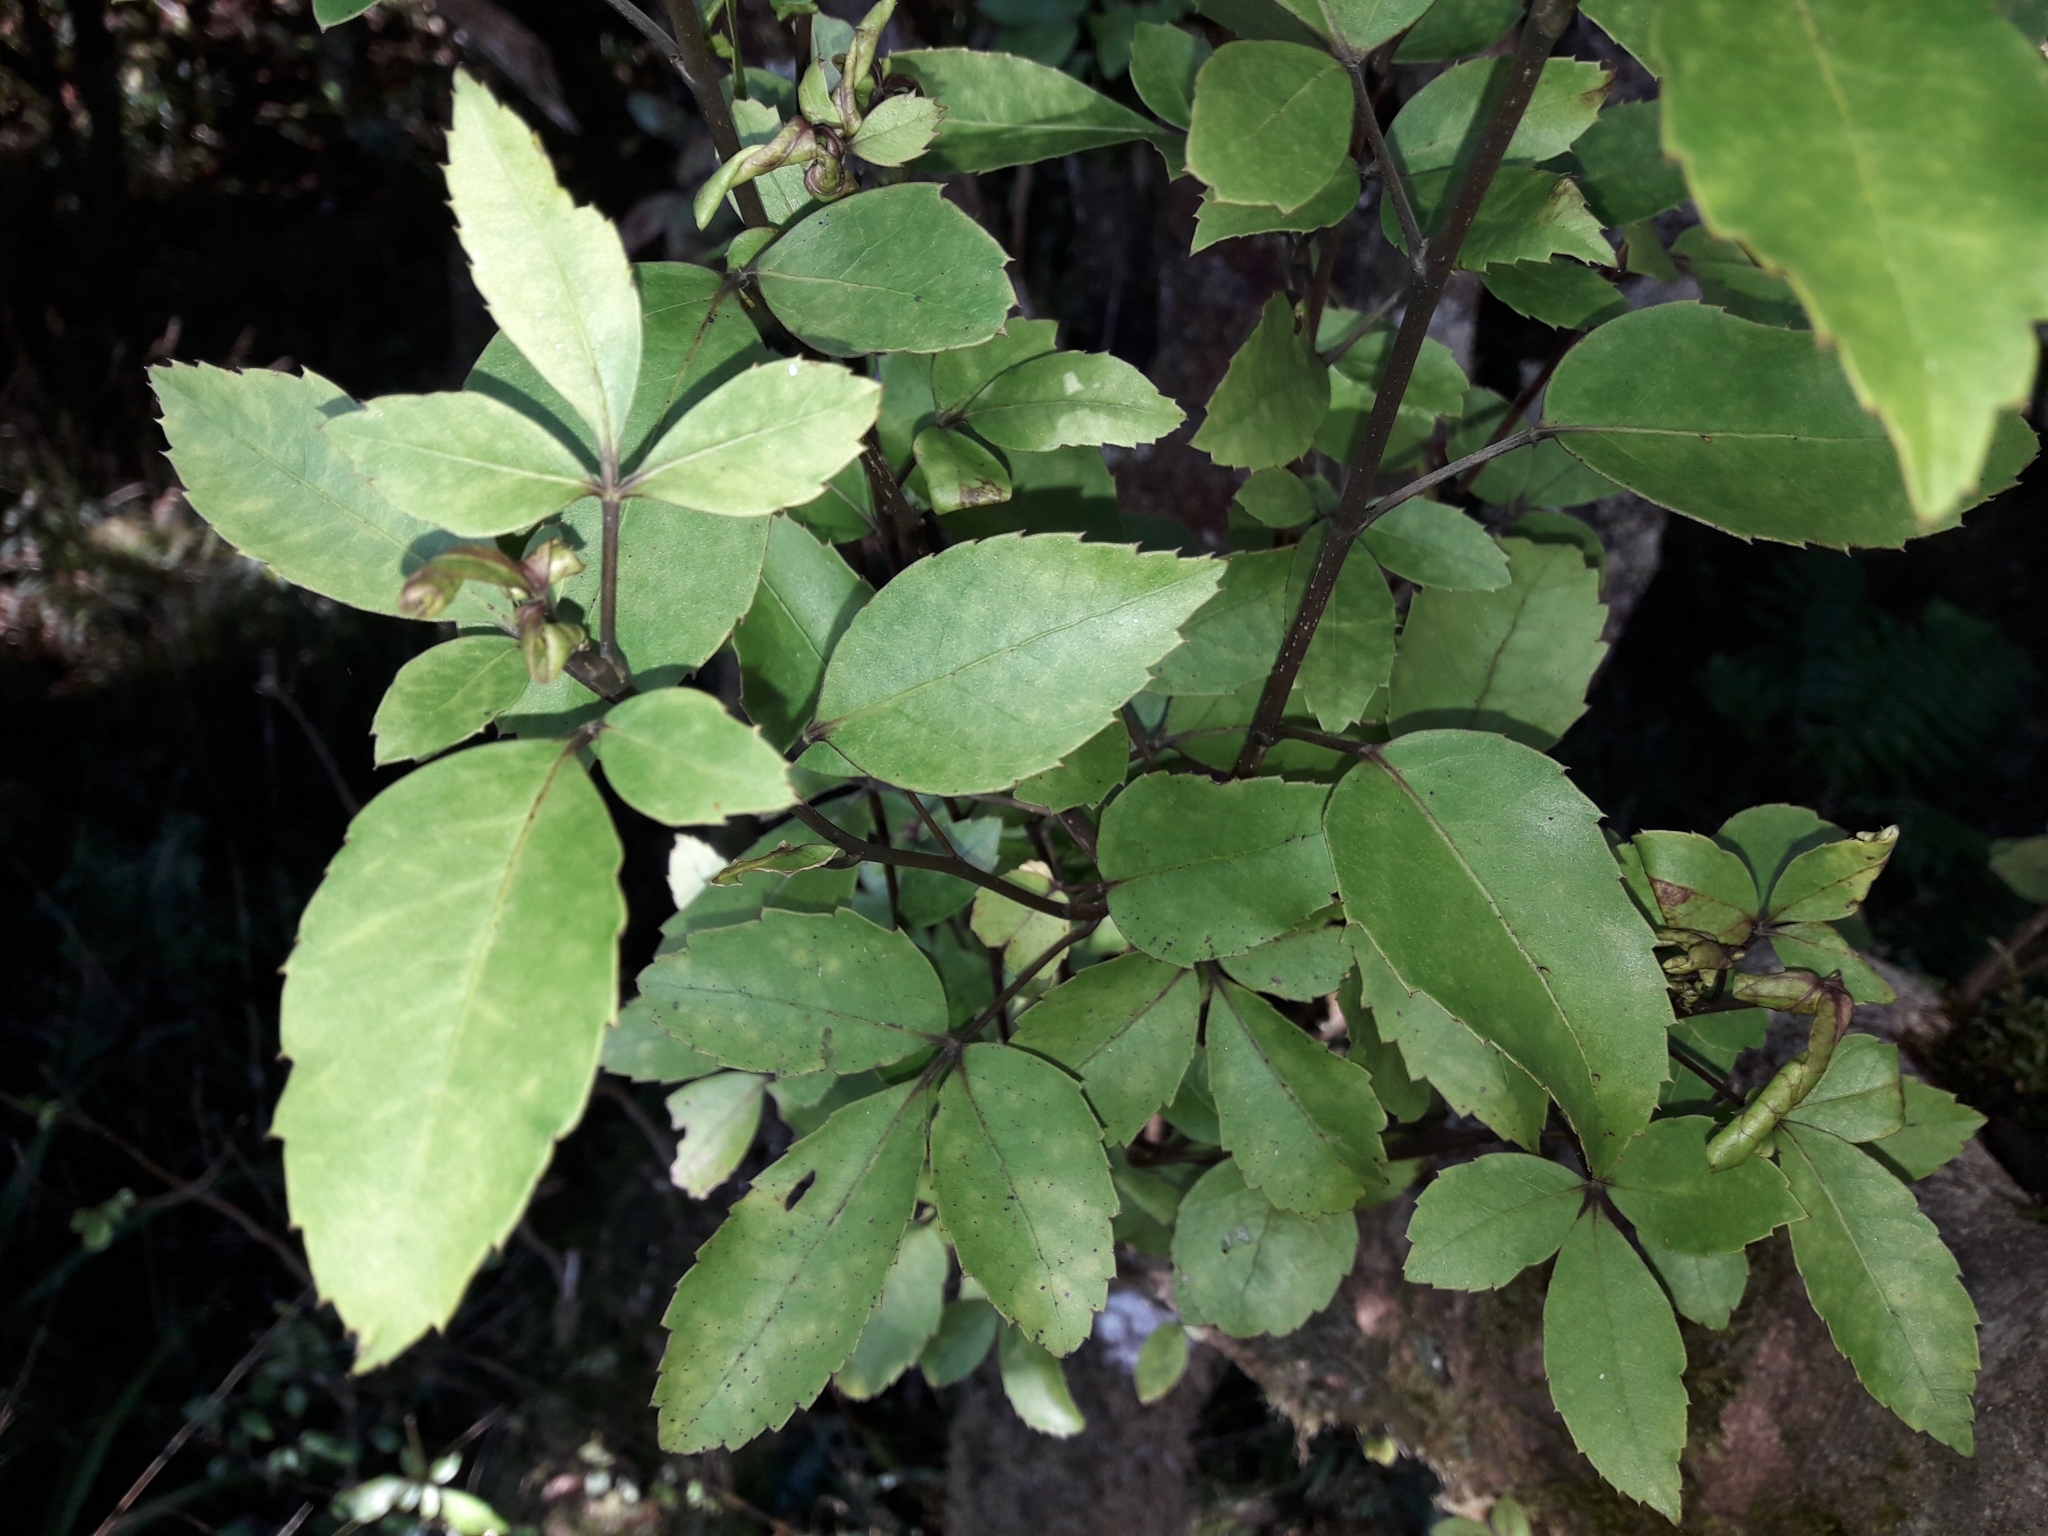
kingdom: Plantae
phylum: Tracheophyta
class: Magnoliopsida
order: Apiales
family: Araliaceae
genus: Raukaua
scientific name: Raukaua simplex
